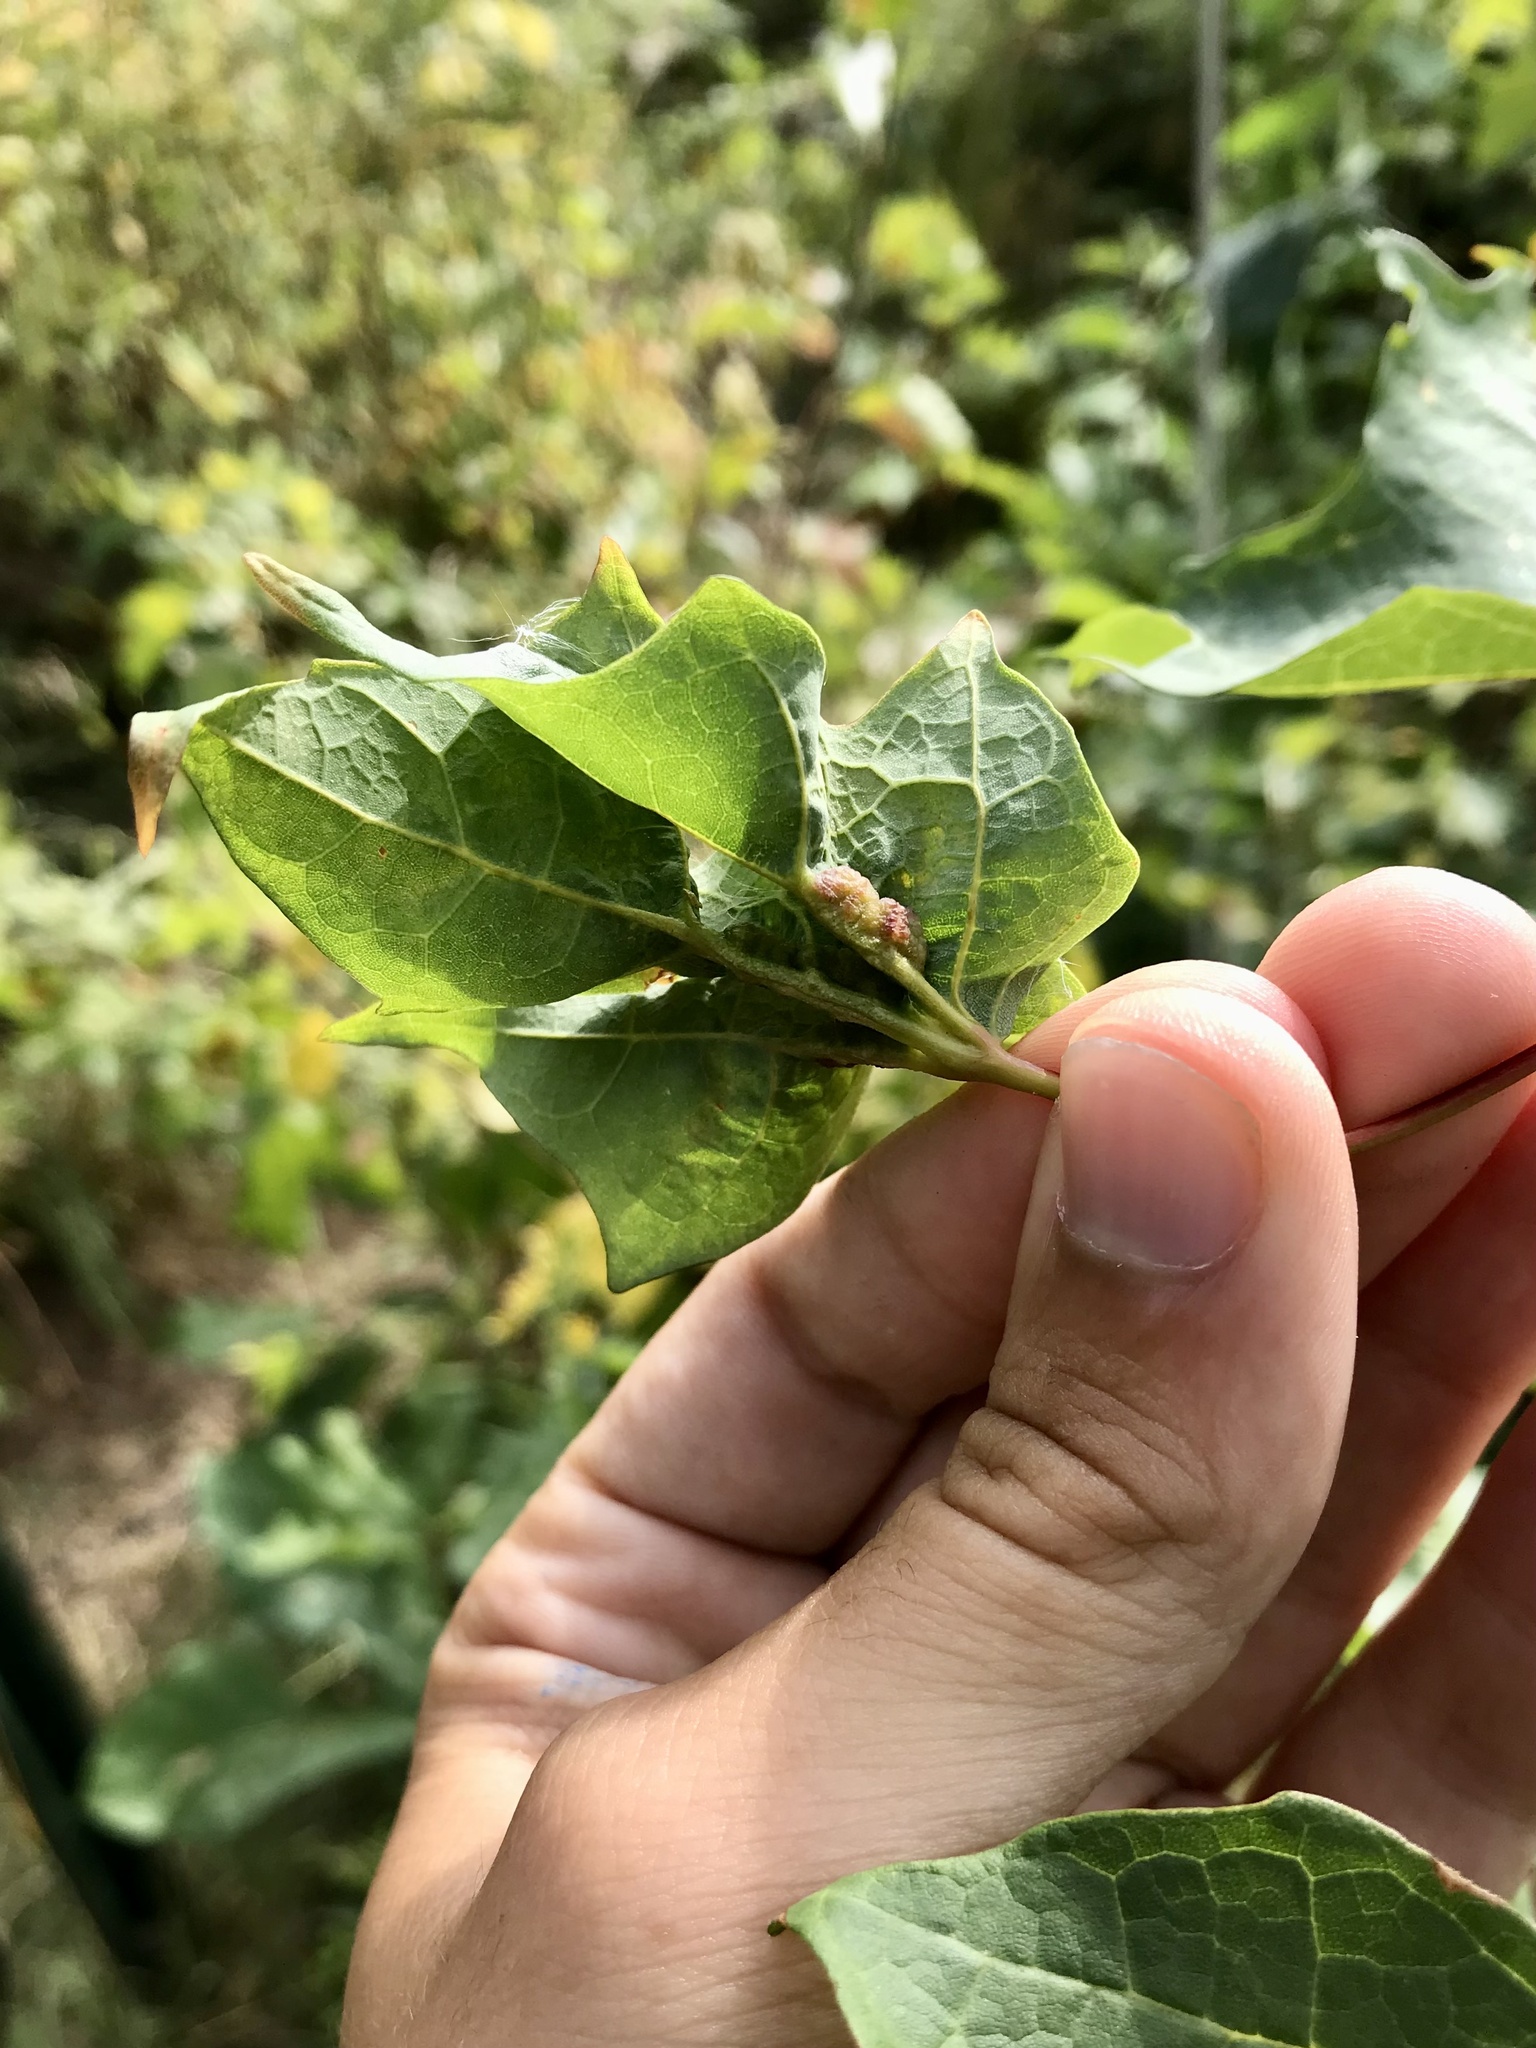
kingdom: Animalia
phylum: Arthropoda
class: Insecta
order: Diptera
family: Cecidomyiidae
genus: Dasineura
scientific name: Dasineura communis
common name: Gouty vein midge
